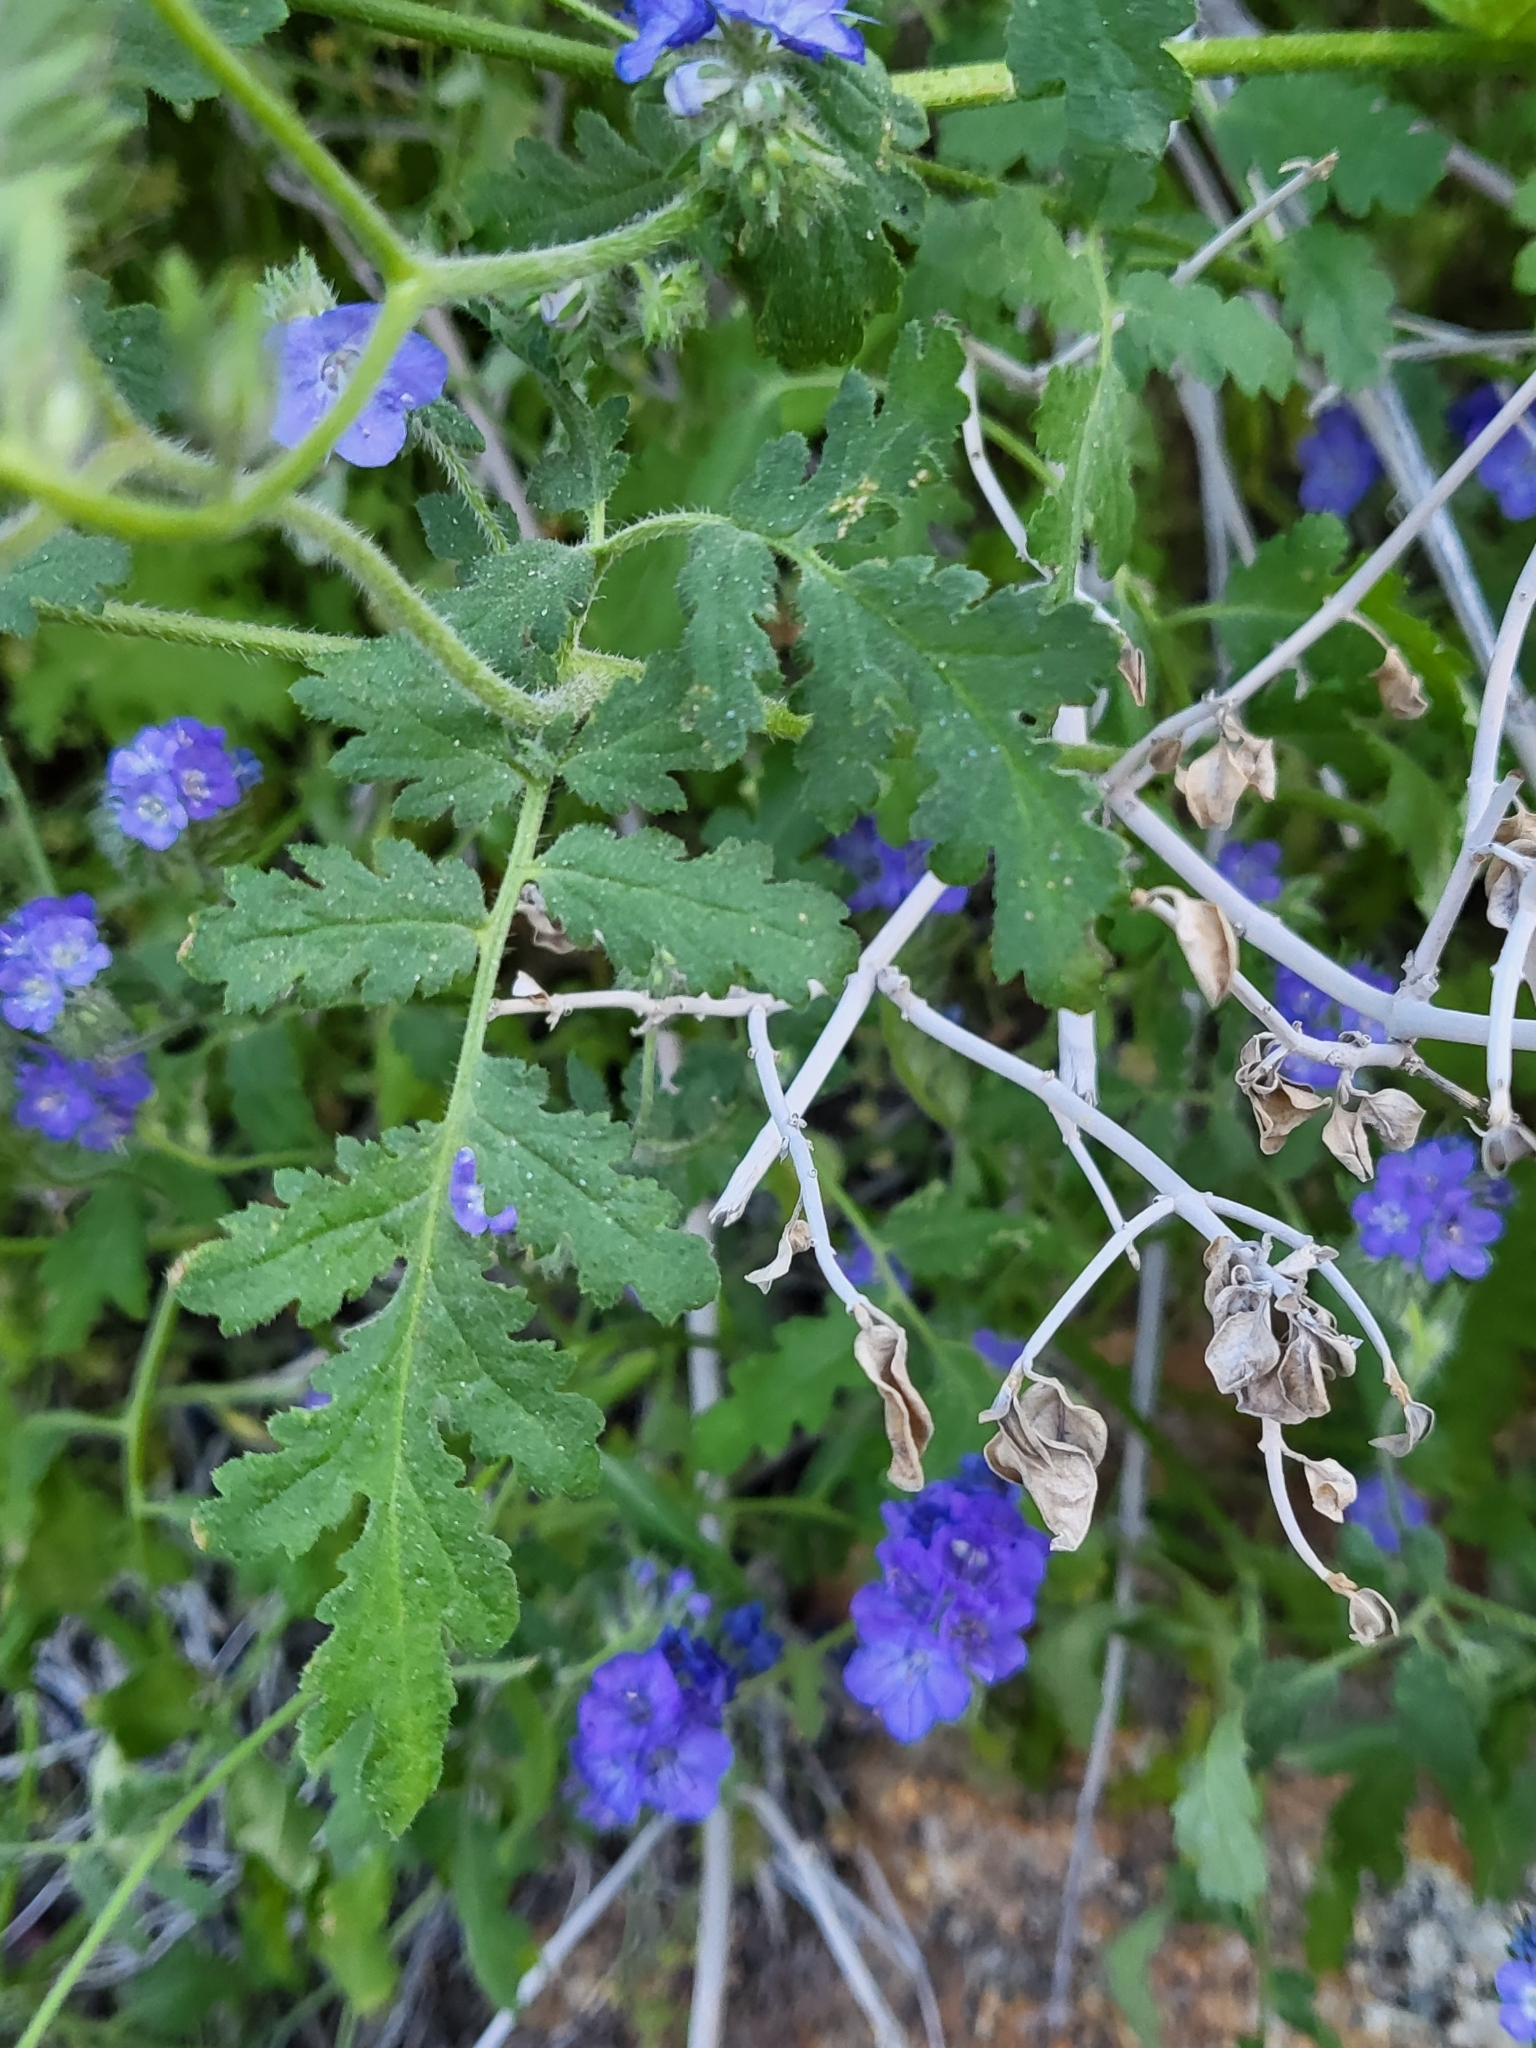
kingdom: Plantae
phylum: Tracheophyta
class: Magnoliopsida
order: Boraginales
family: Hydrophyllaceae
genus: Phacelia
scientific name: Phacelia distans
